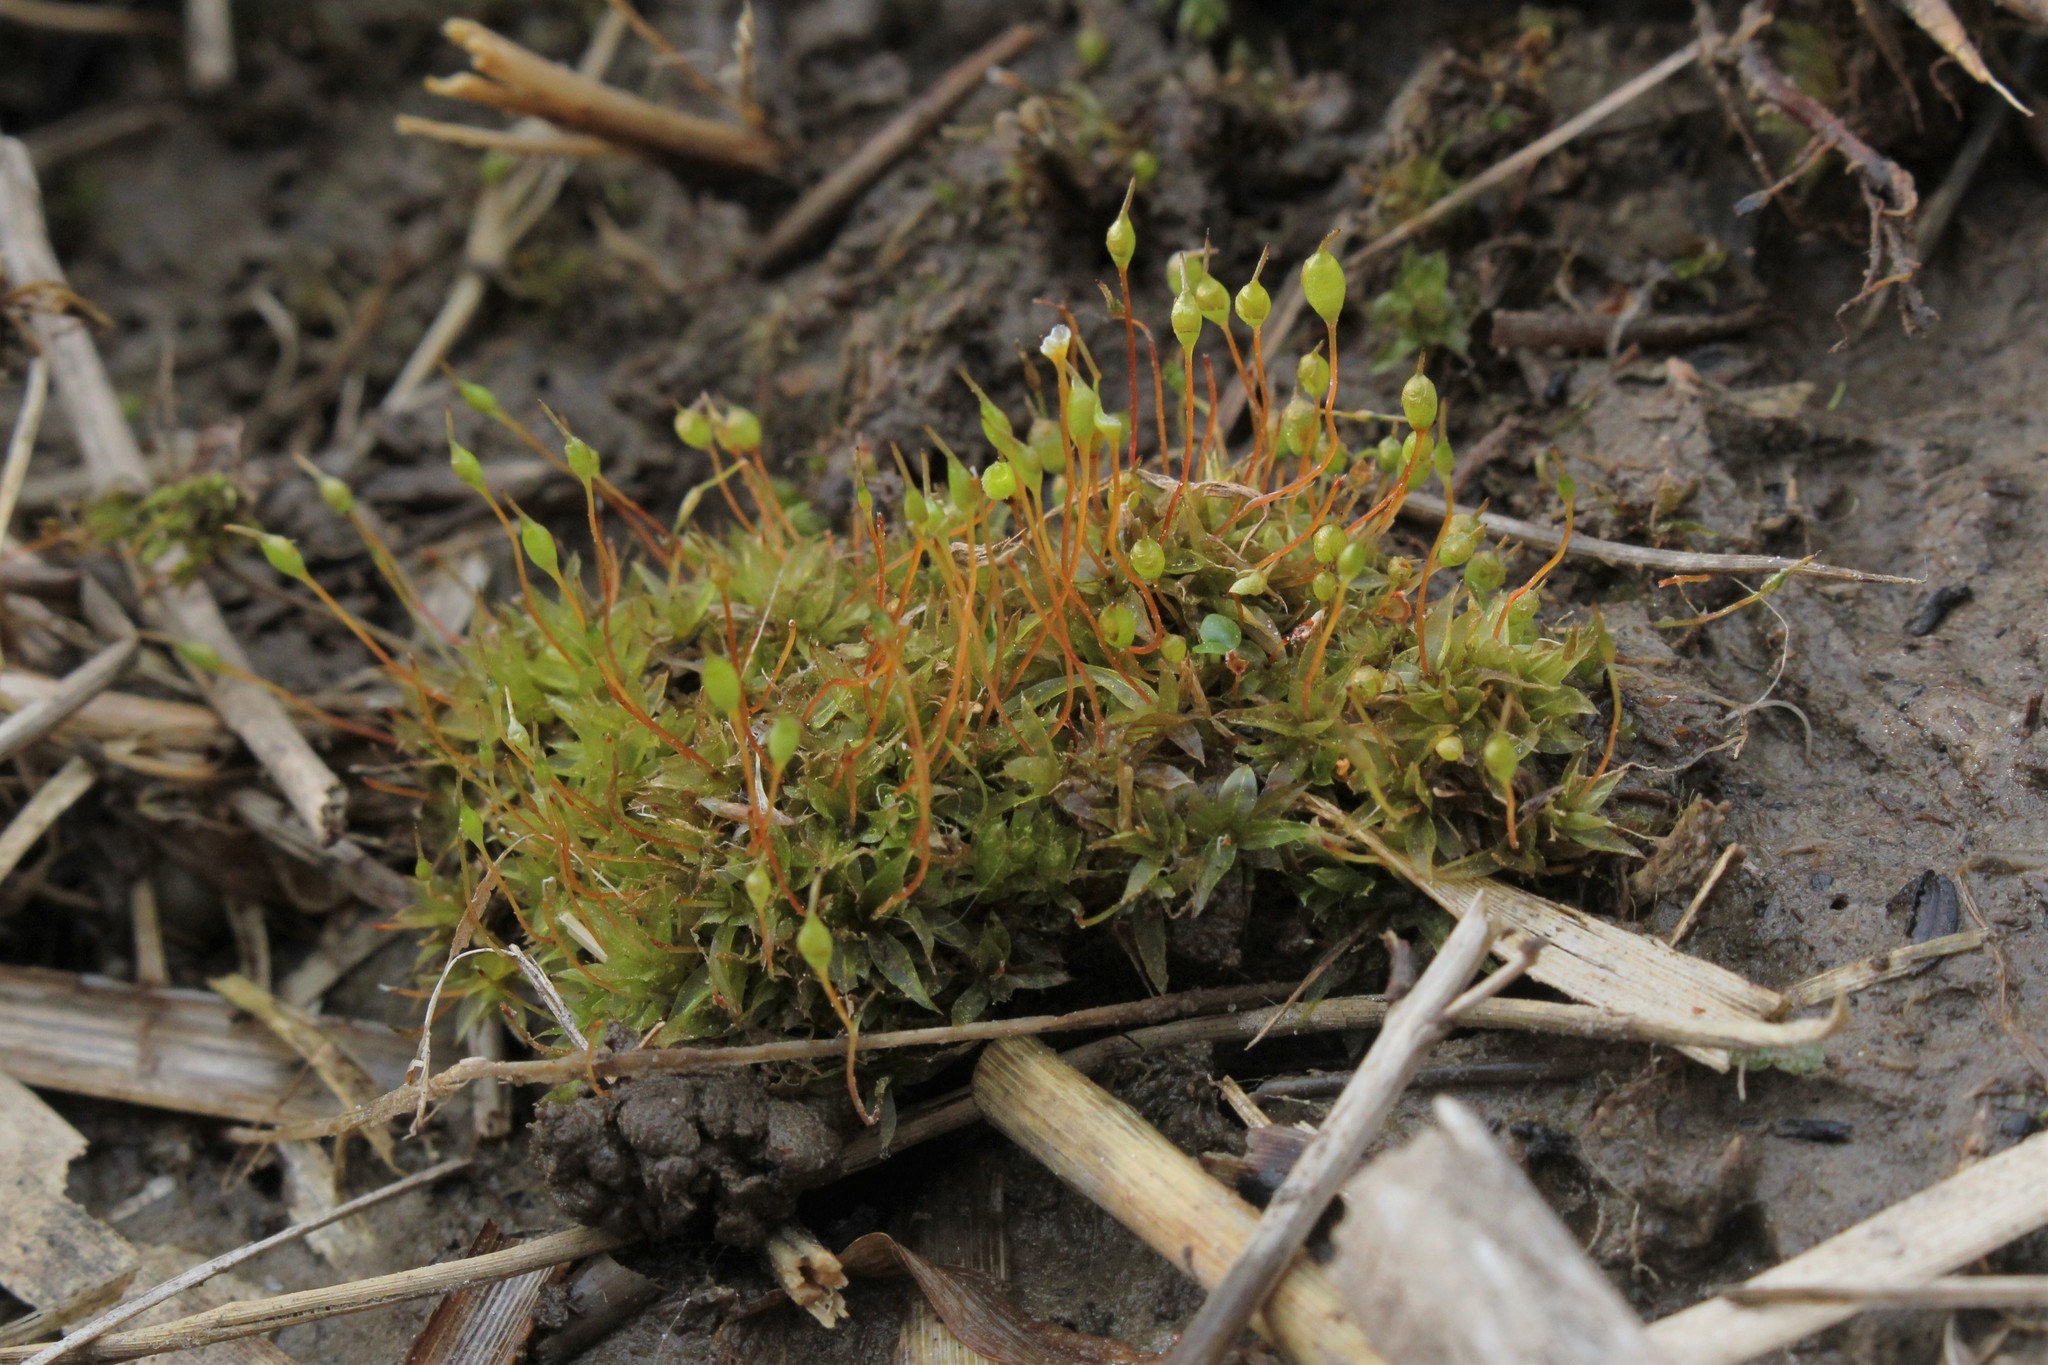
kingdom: Plantae
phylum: Bryophyta
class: Bryopsida
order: Funariales
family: Funariaceae
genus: Physcomitrium
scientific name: Physcomitrium pyriforme
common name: Common bladder-moss
